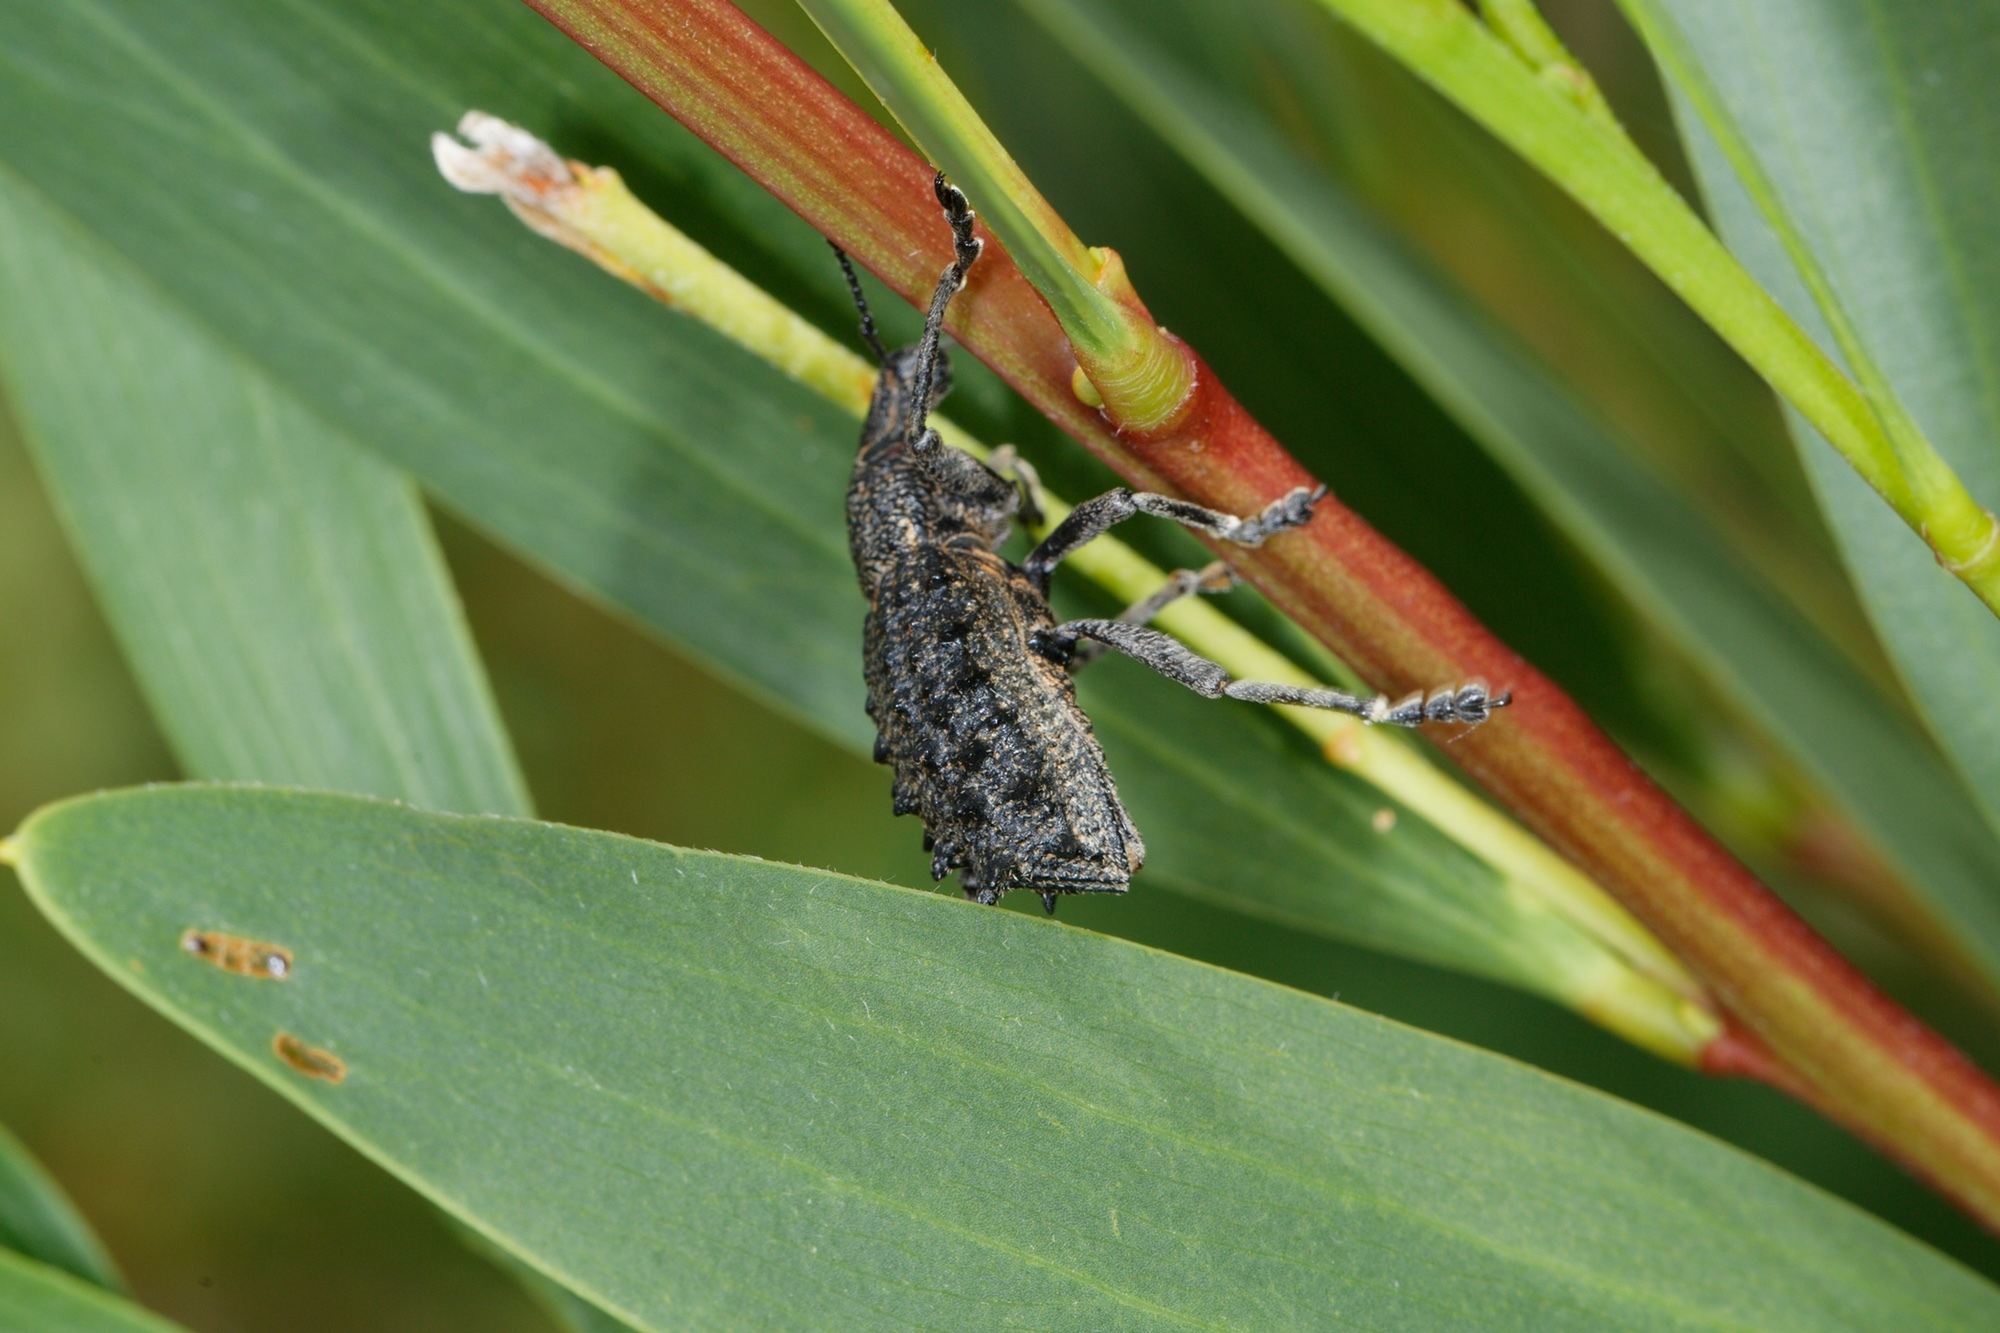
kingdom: Animalia
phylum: Arthropoda
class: Insecta
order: Coleoptera
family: Curculionidae
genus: Leptopius
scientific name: Leptopius duponti
